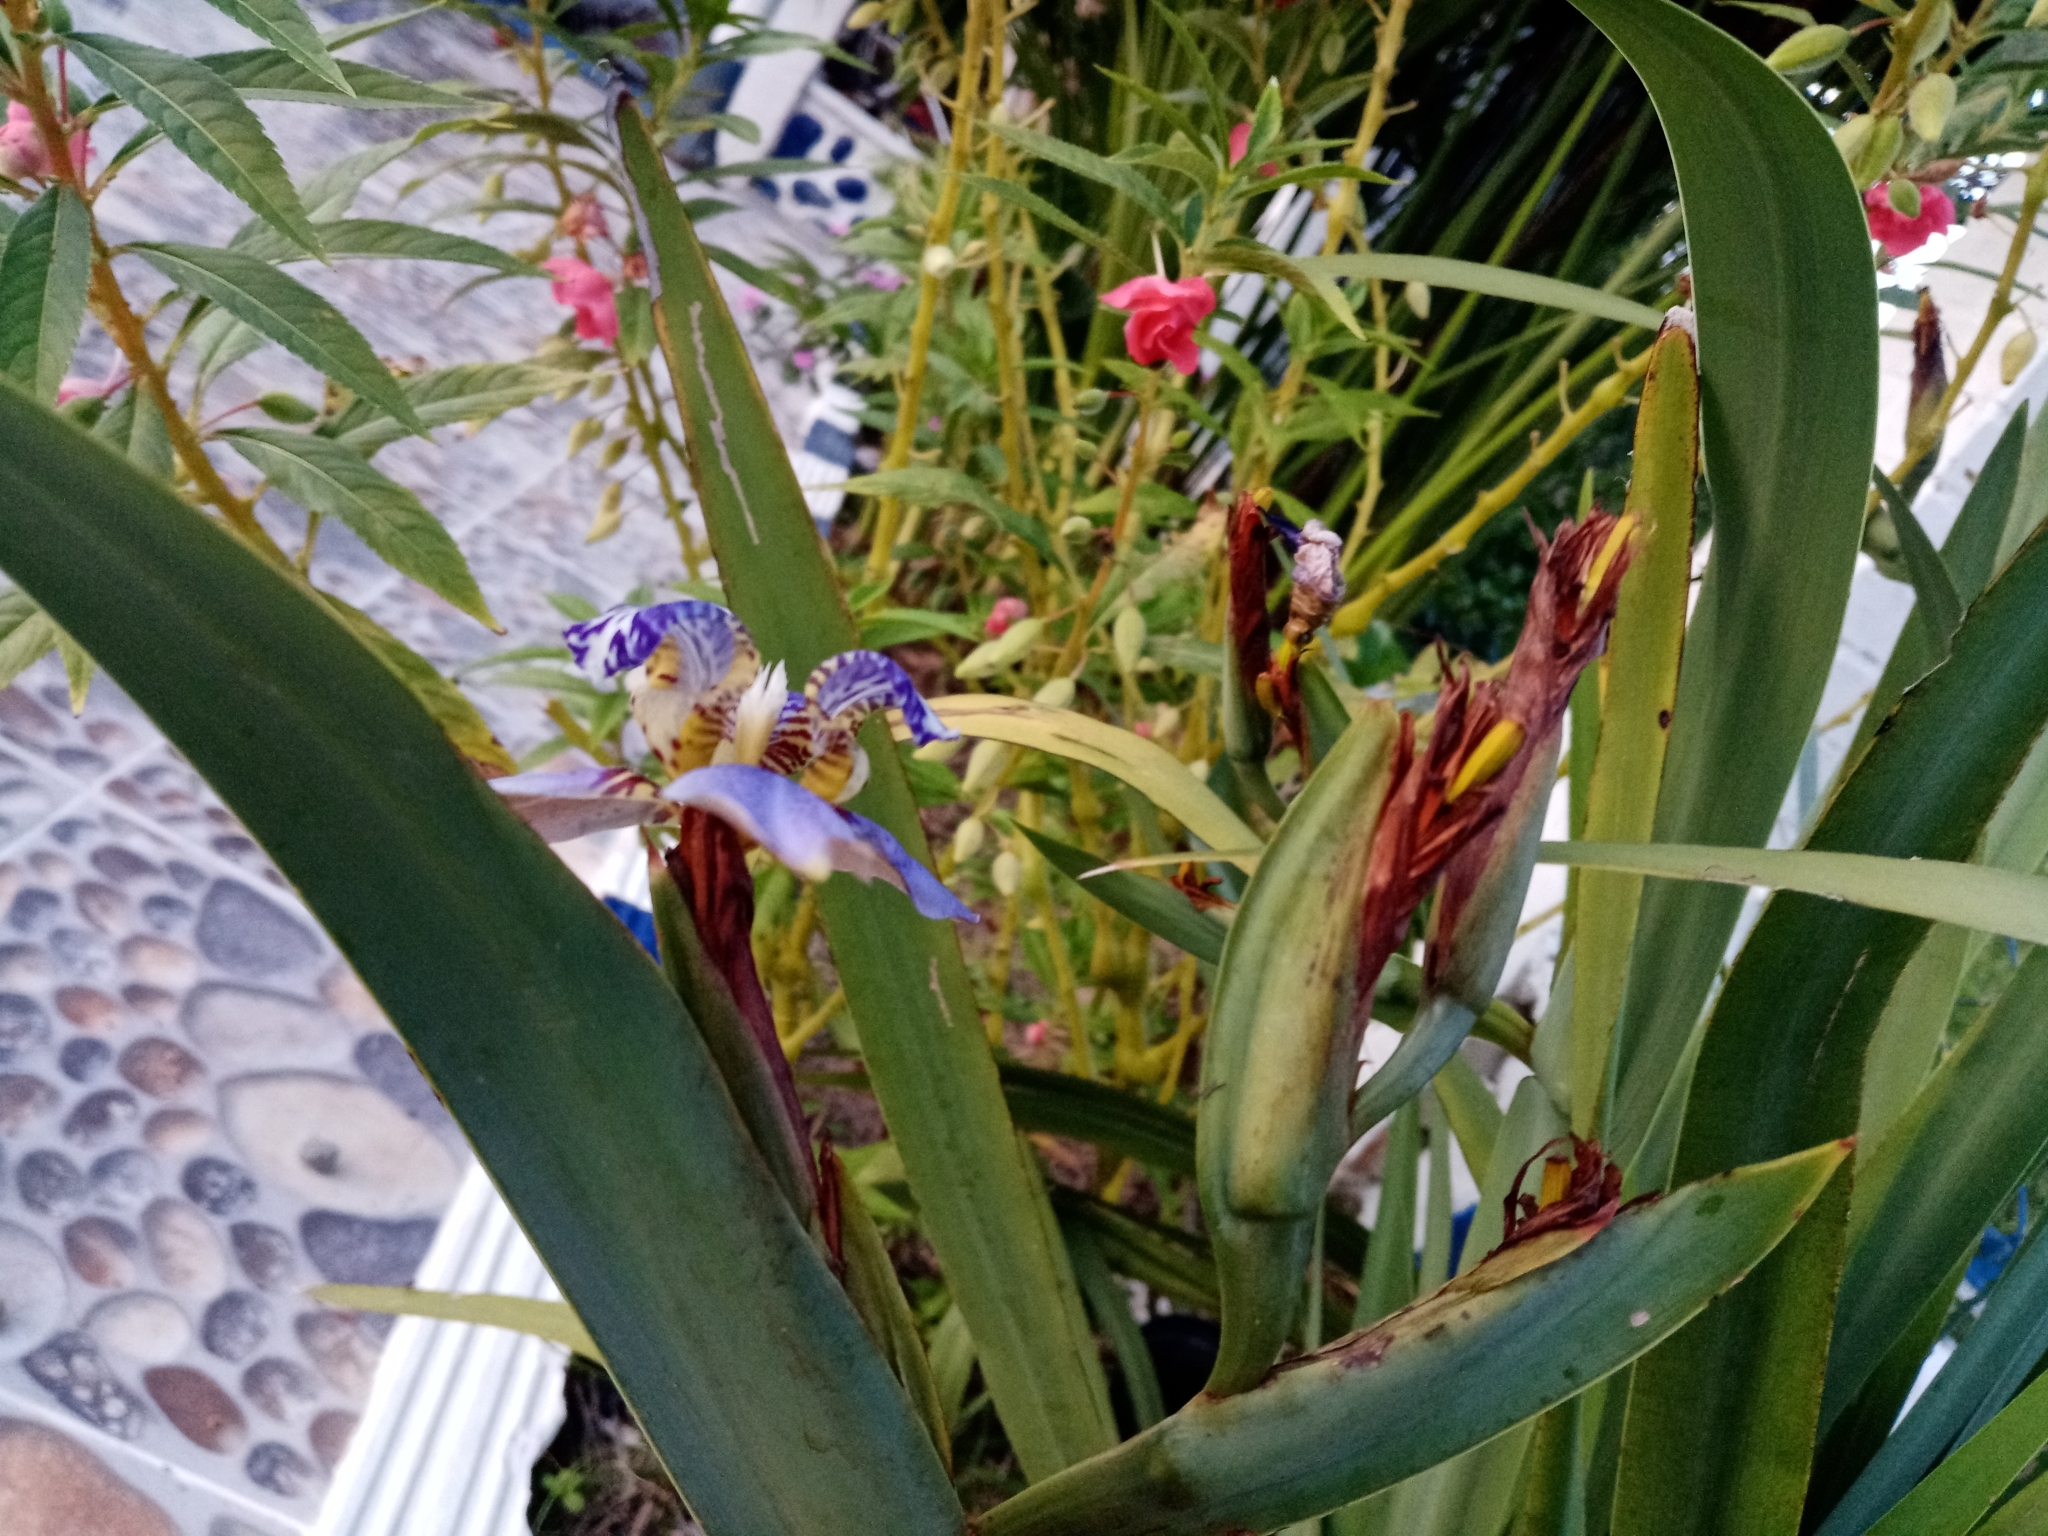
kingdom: Plantae
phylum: Tracheophyta
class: Liliopsida
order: Asparagales
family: Iridaceae
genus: Trimezia
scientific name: Trimezia coerulea
